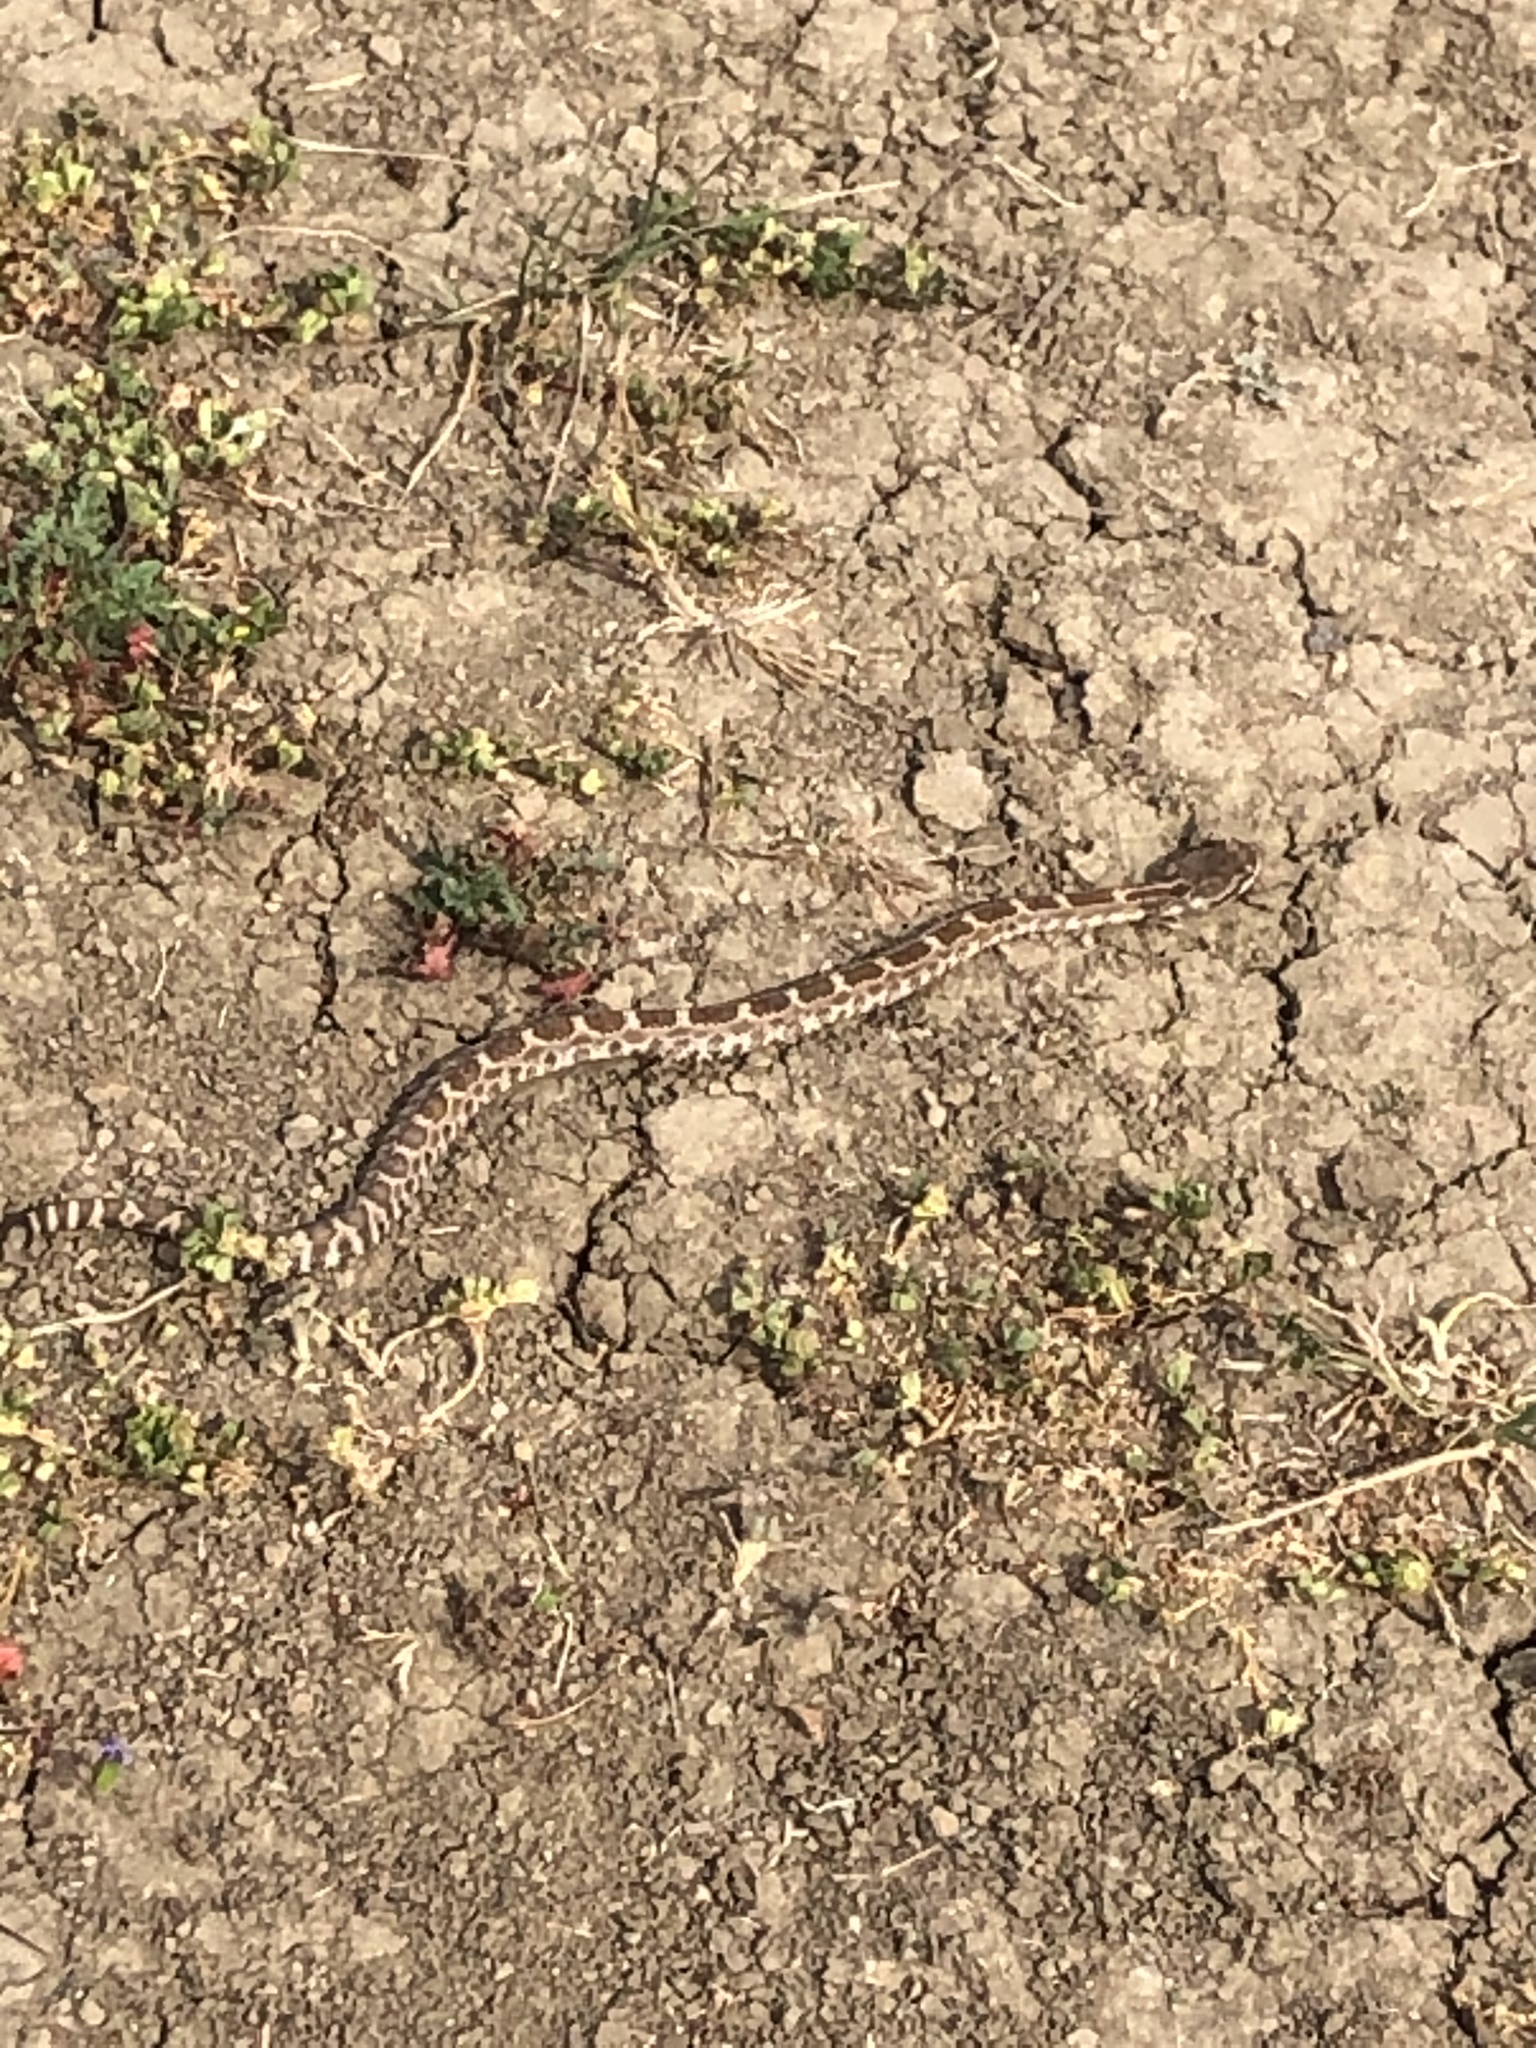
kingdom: Animalia
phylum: Chordata
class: Squamata
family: Viperidae
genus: Crotalus
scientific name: Crotalus oreganus
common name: Abyssus
